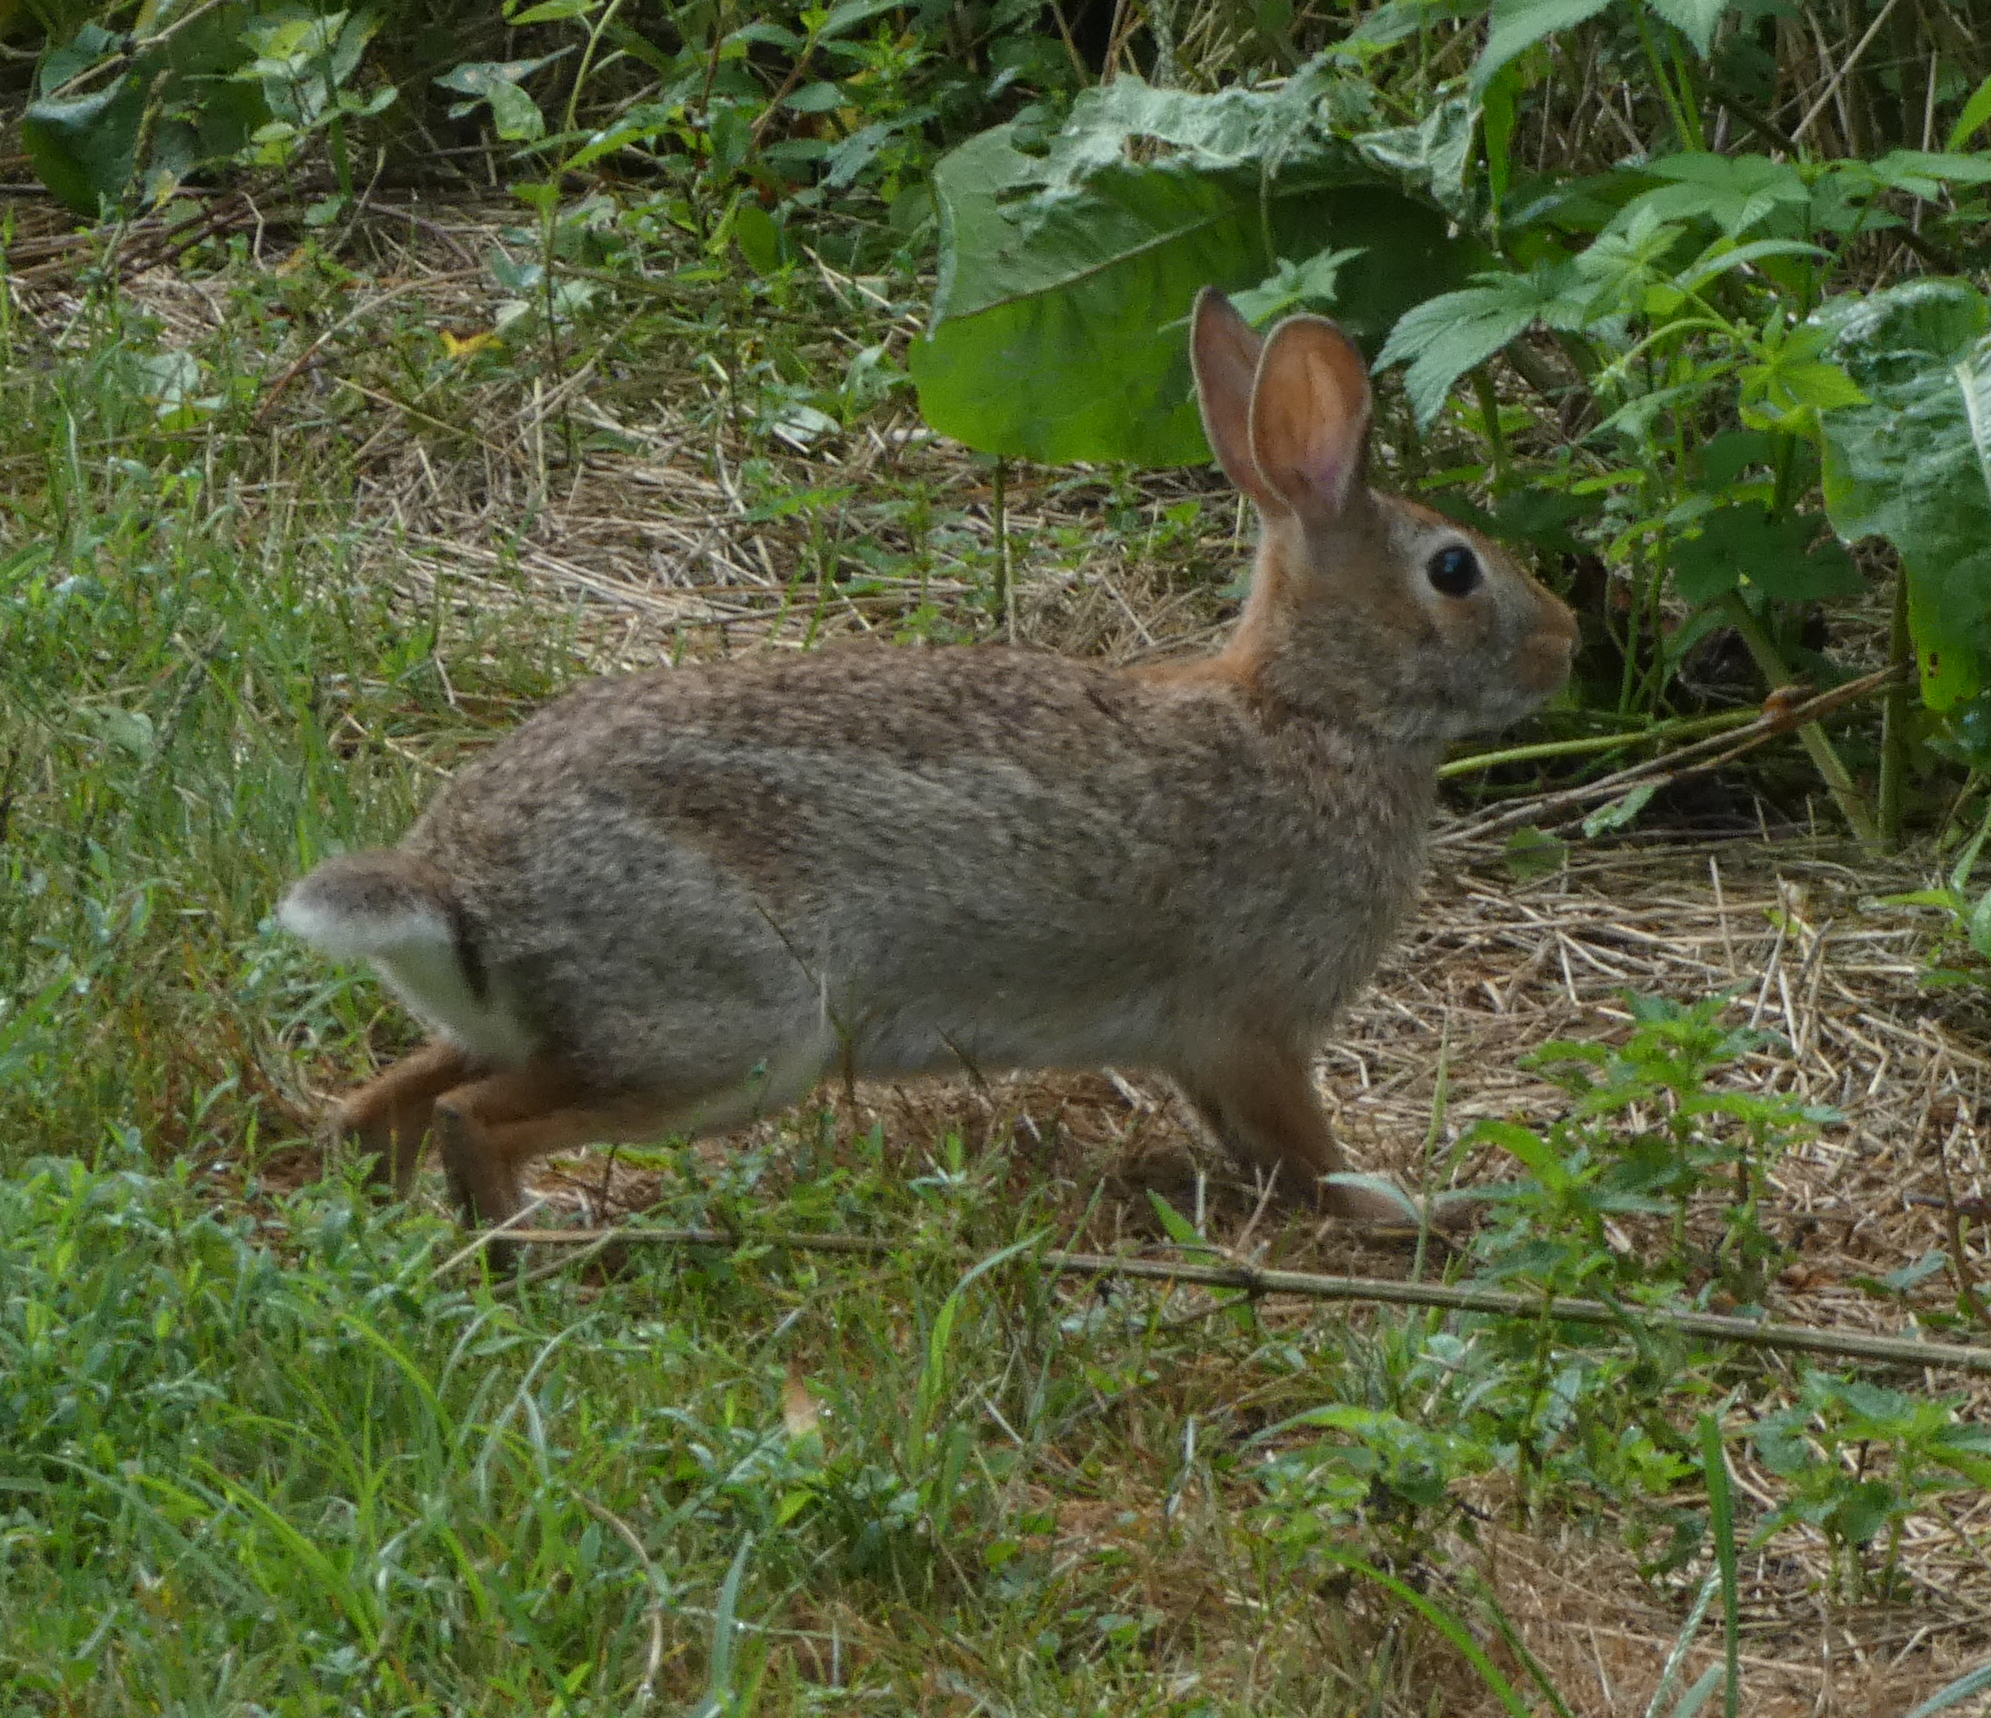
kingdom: Animalia
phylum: Chordata
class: Mammalia
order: Lagomorpha
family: Leporidae
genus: Sylvilagus
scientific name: Sylvilagus floridanus
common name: Eastern cottontail
